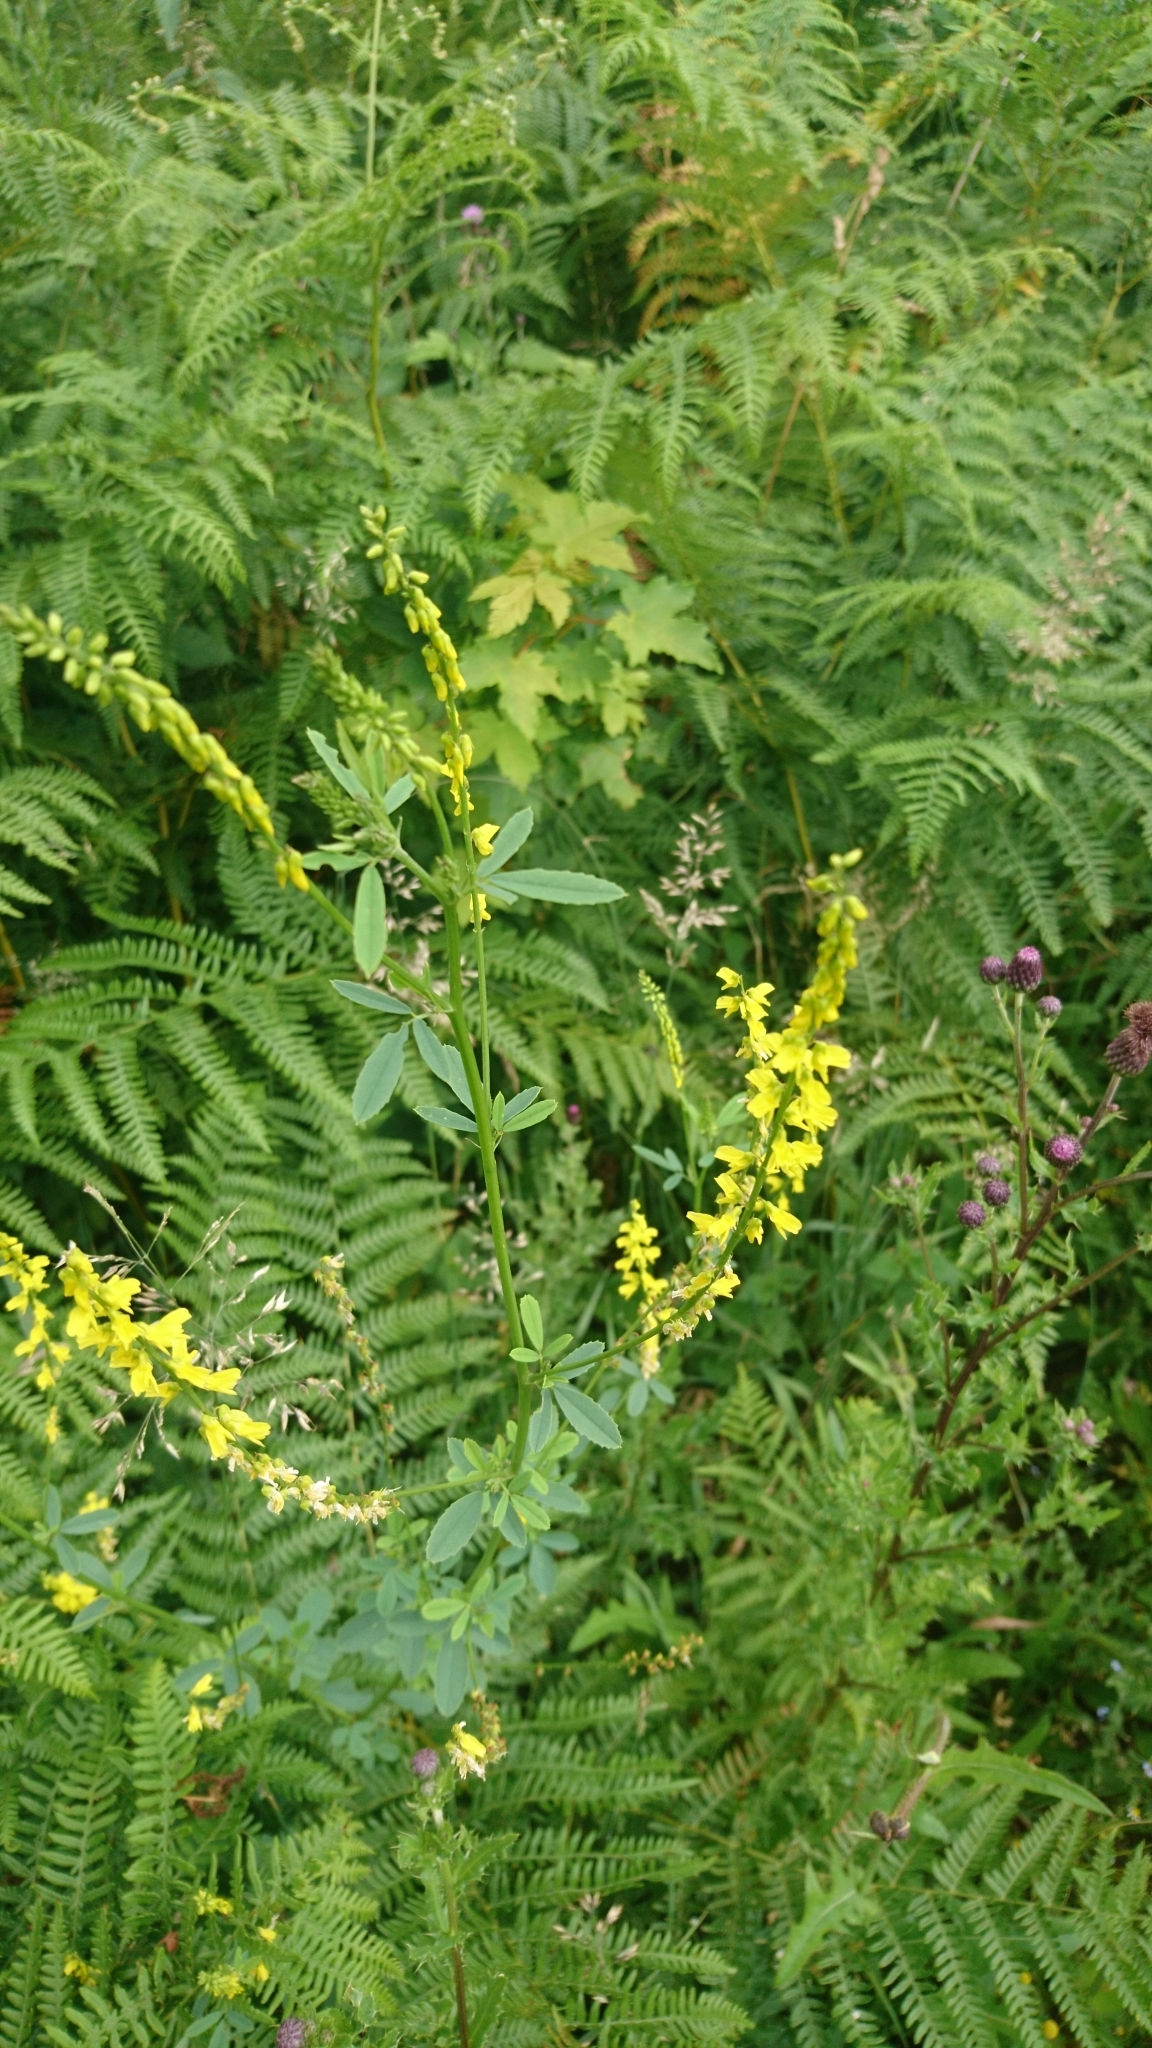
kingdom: Plantae
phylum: Tracheophyta
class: Magnoliopsida
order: Fabales
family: Fabaceae
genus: Melilotus
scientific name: Melilotus officinalis
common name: Sweetclover
